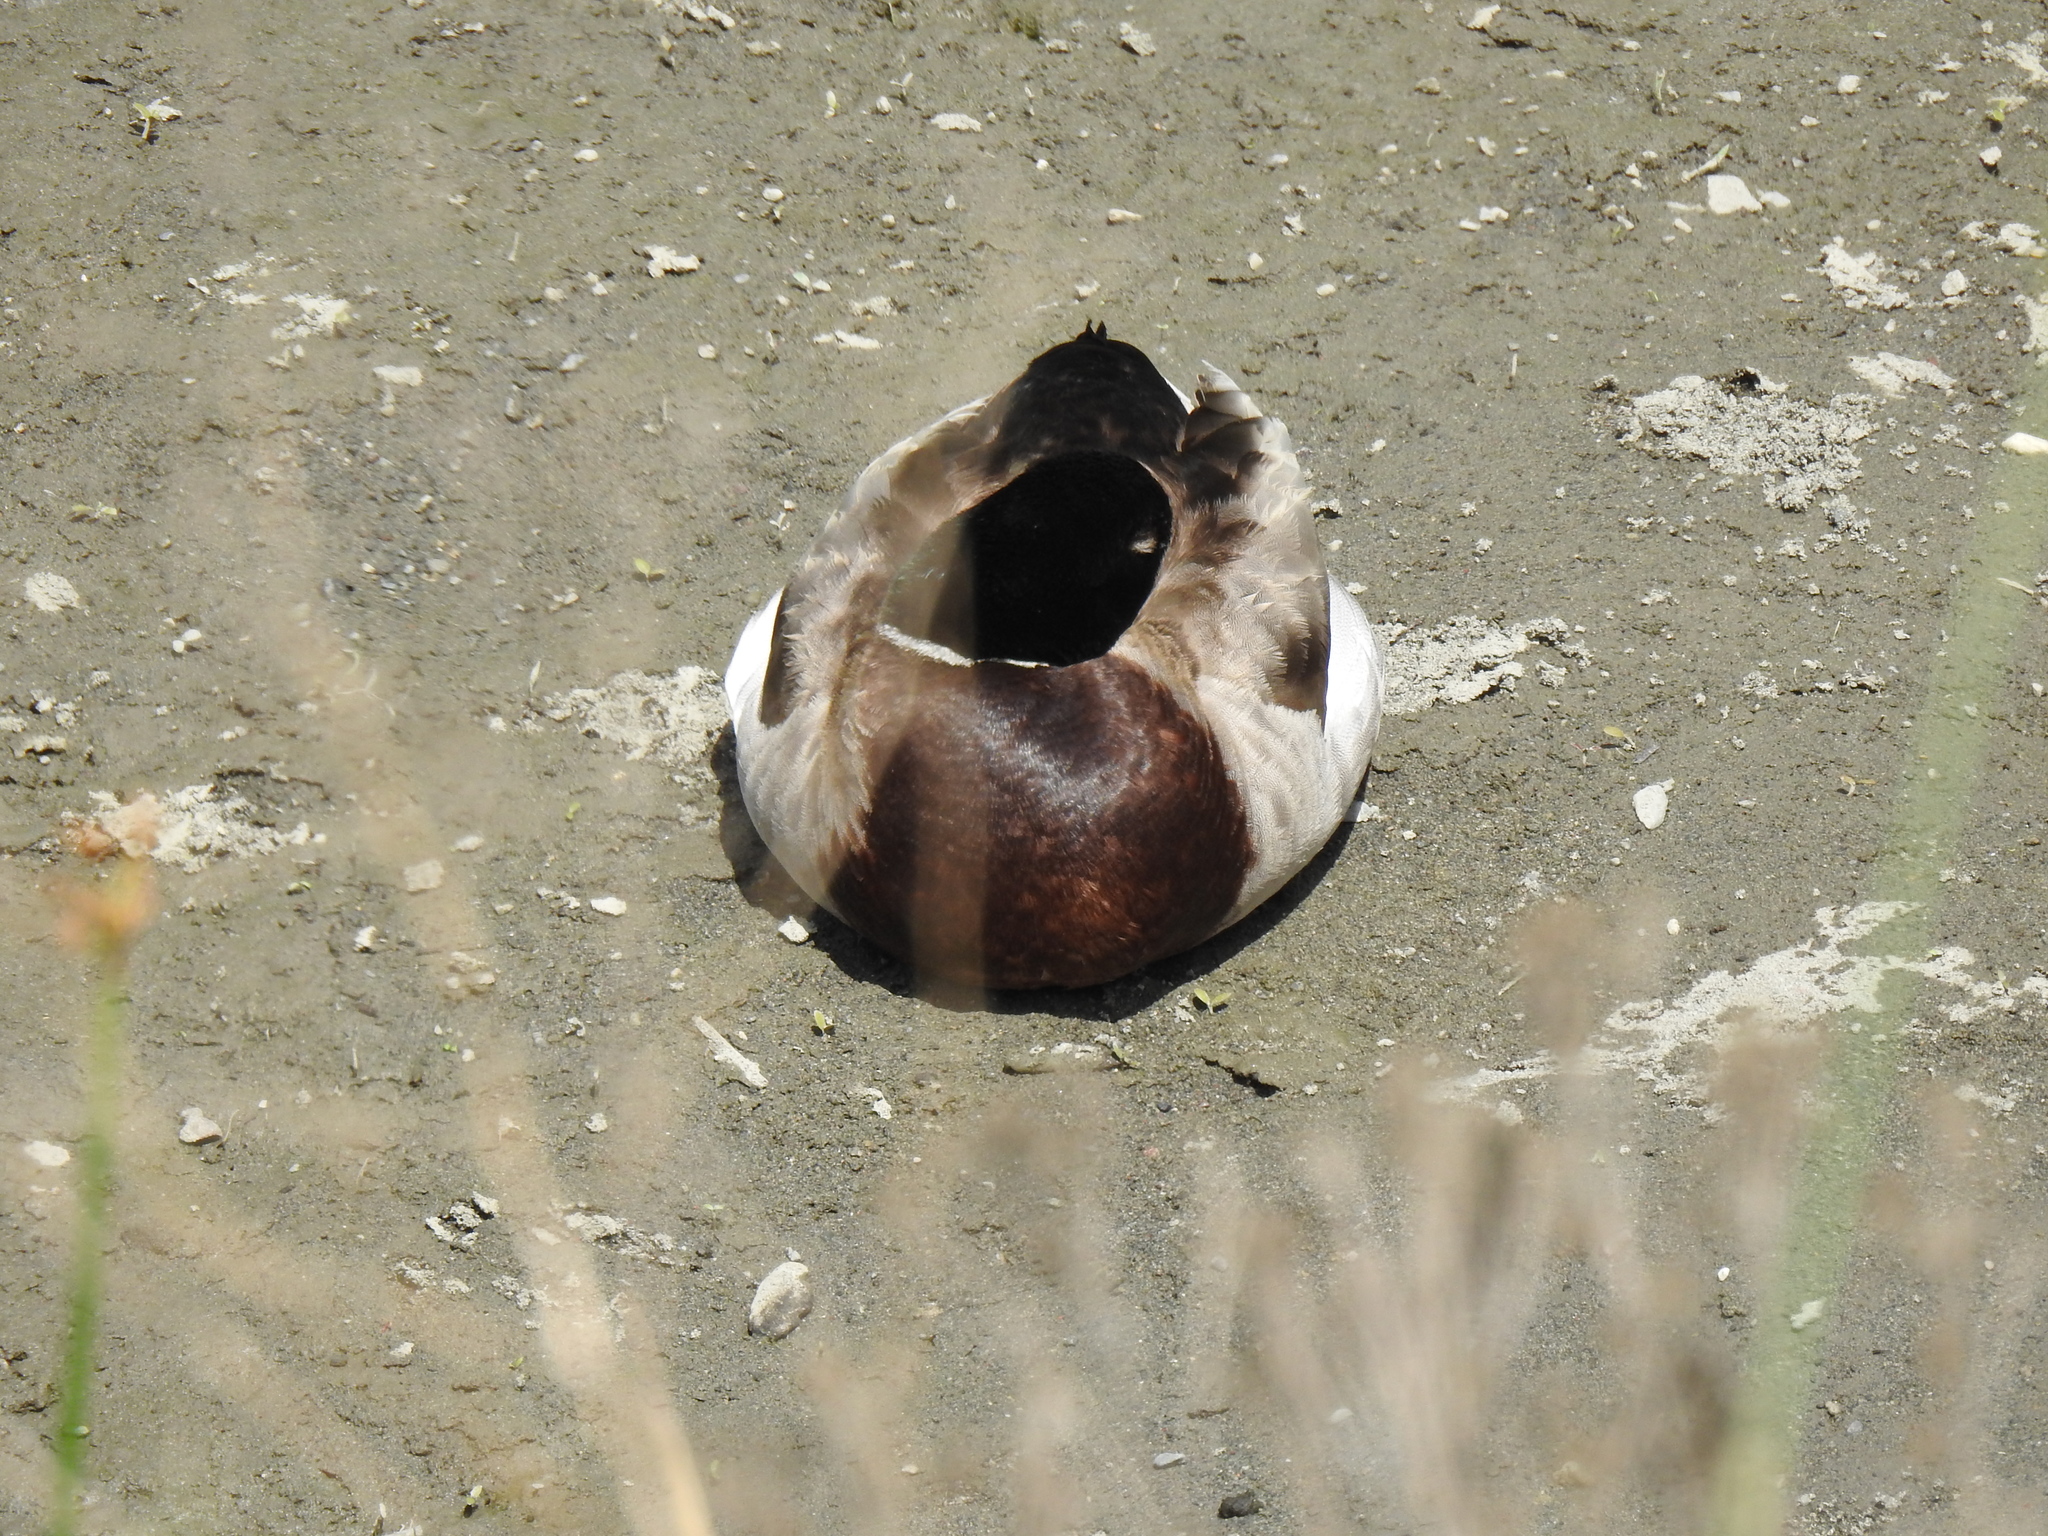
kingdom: Animalia
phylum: Chordata
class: Aves
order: Anseriformes
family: Anatidae
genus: Anas
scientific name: Anas platyrhynchos
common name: Mallard
